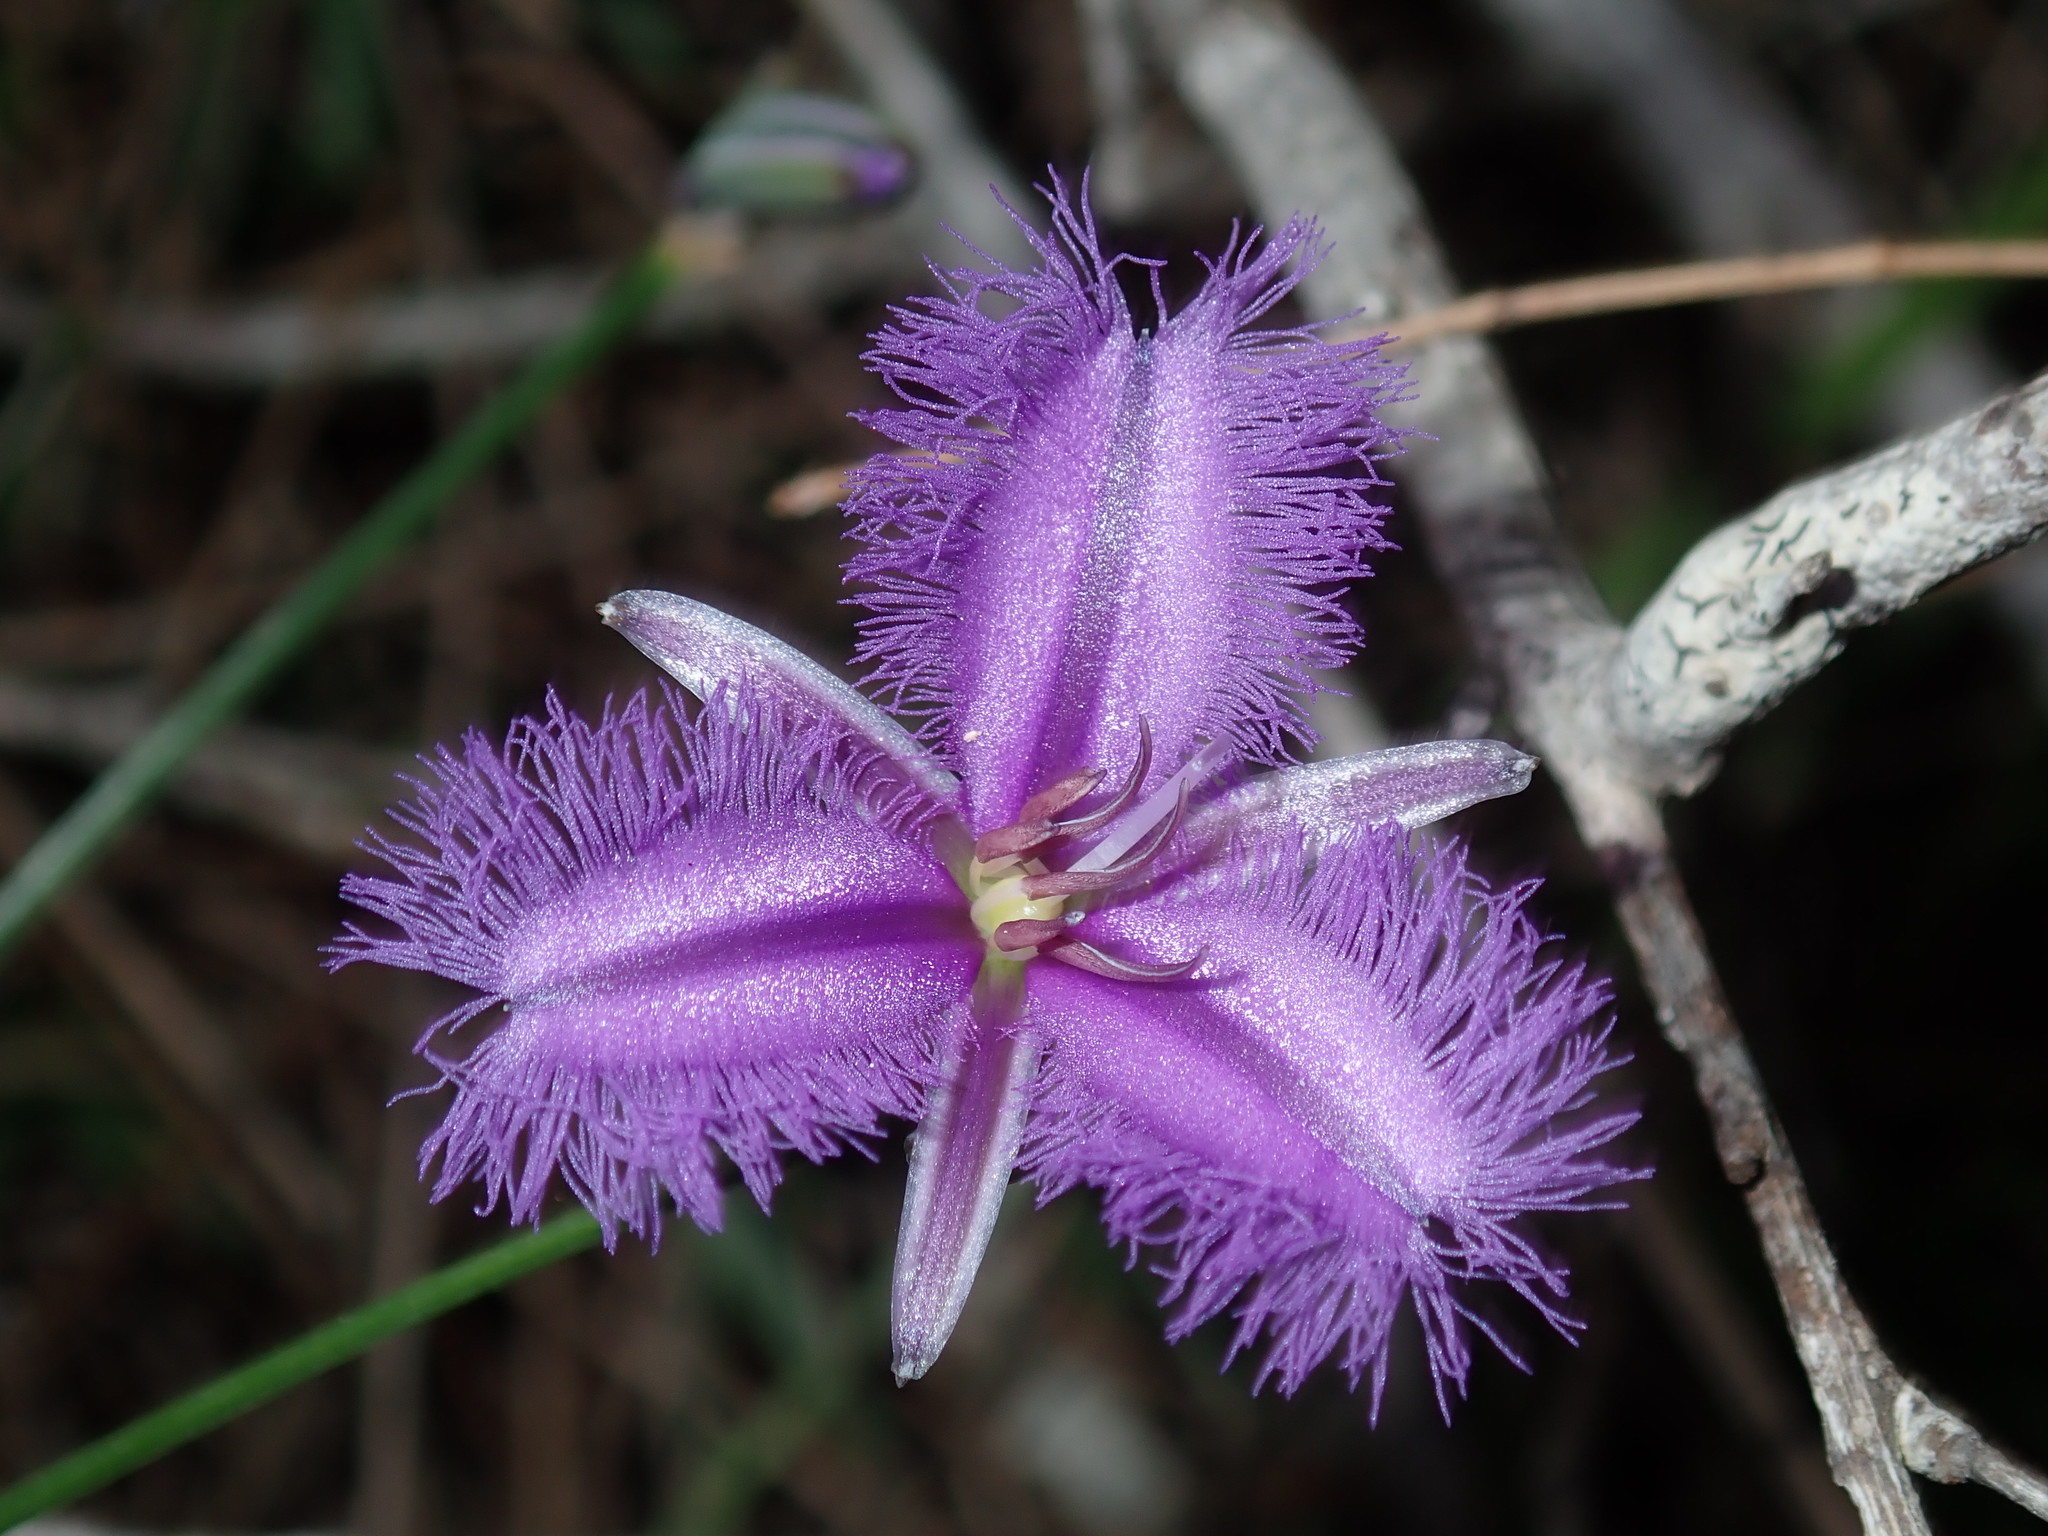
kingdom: Plantae
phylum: Tracheophyta
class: Liliopsida
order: Asparagales
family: Asparagaceae
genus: Thysanotus
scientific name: Thysanotus tuberosus
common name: Common fringed-lily
